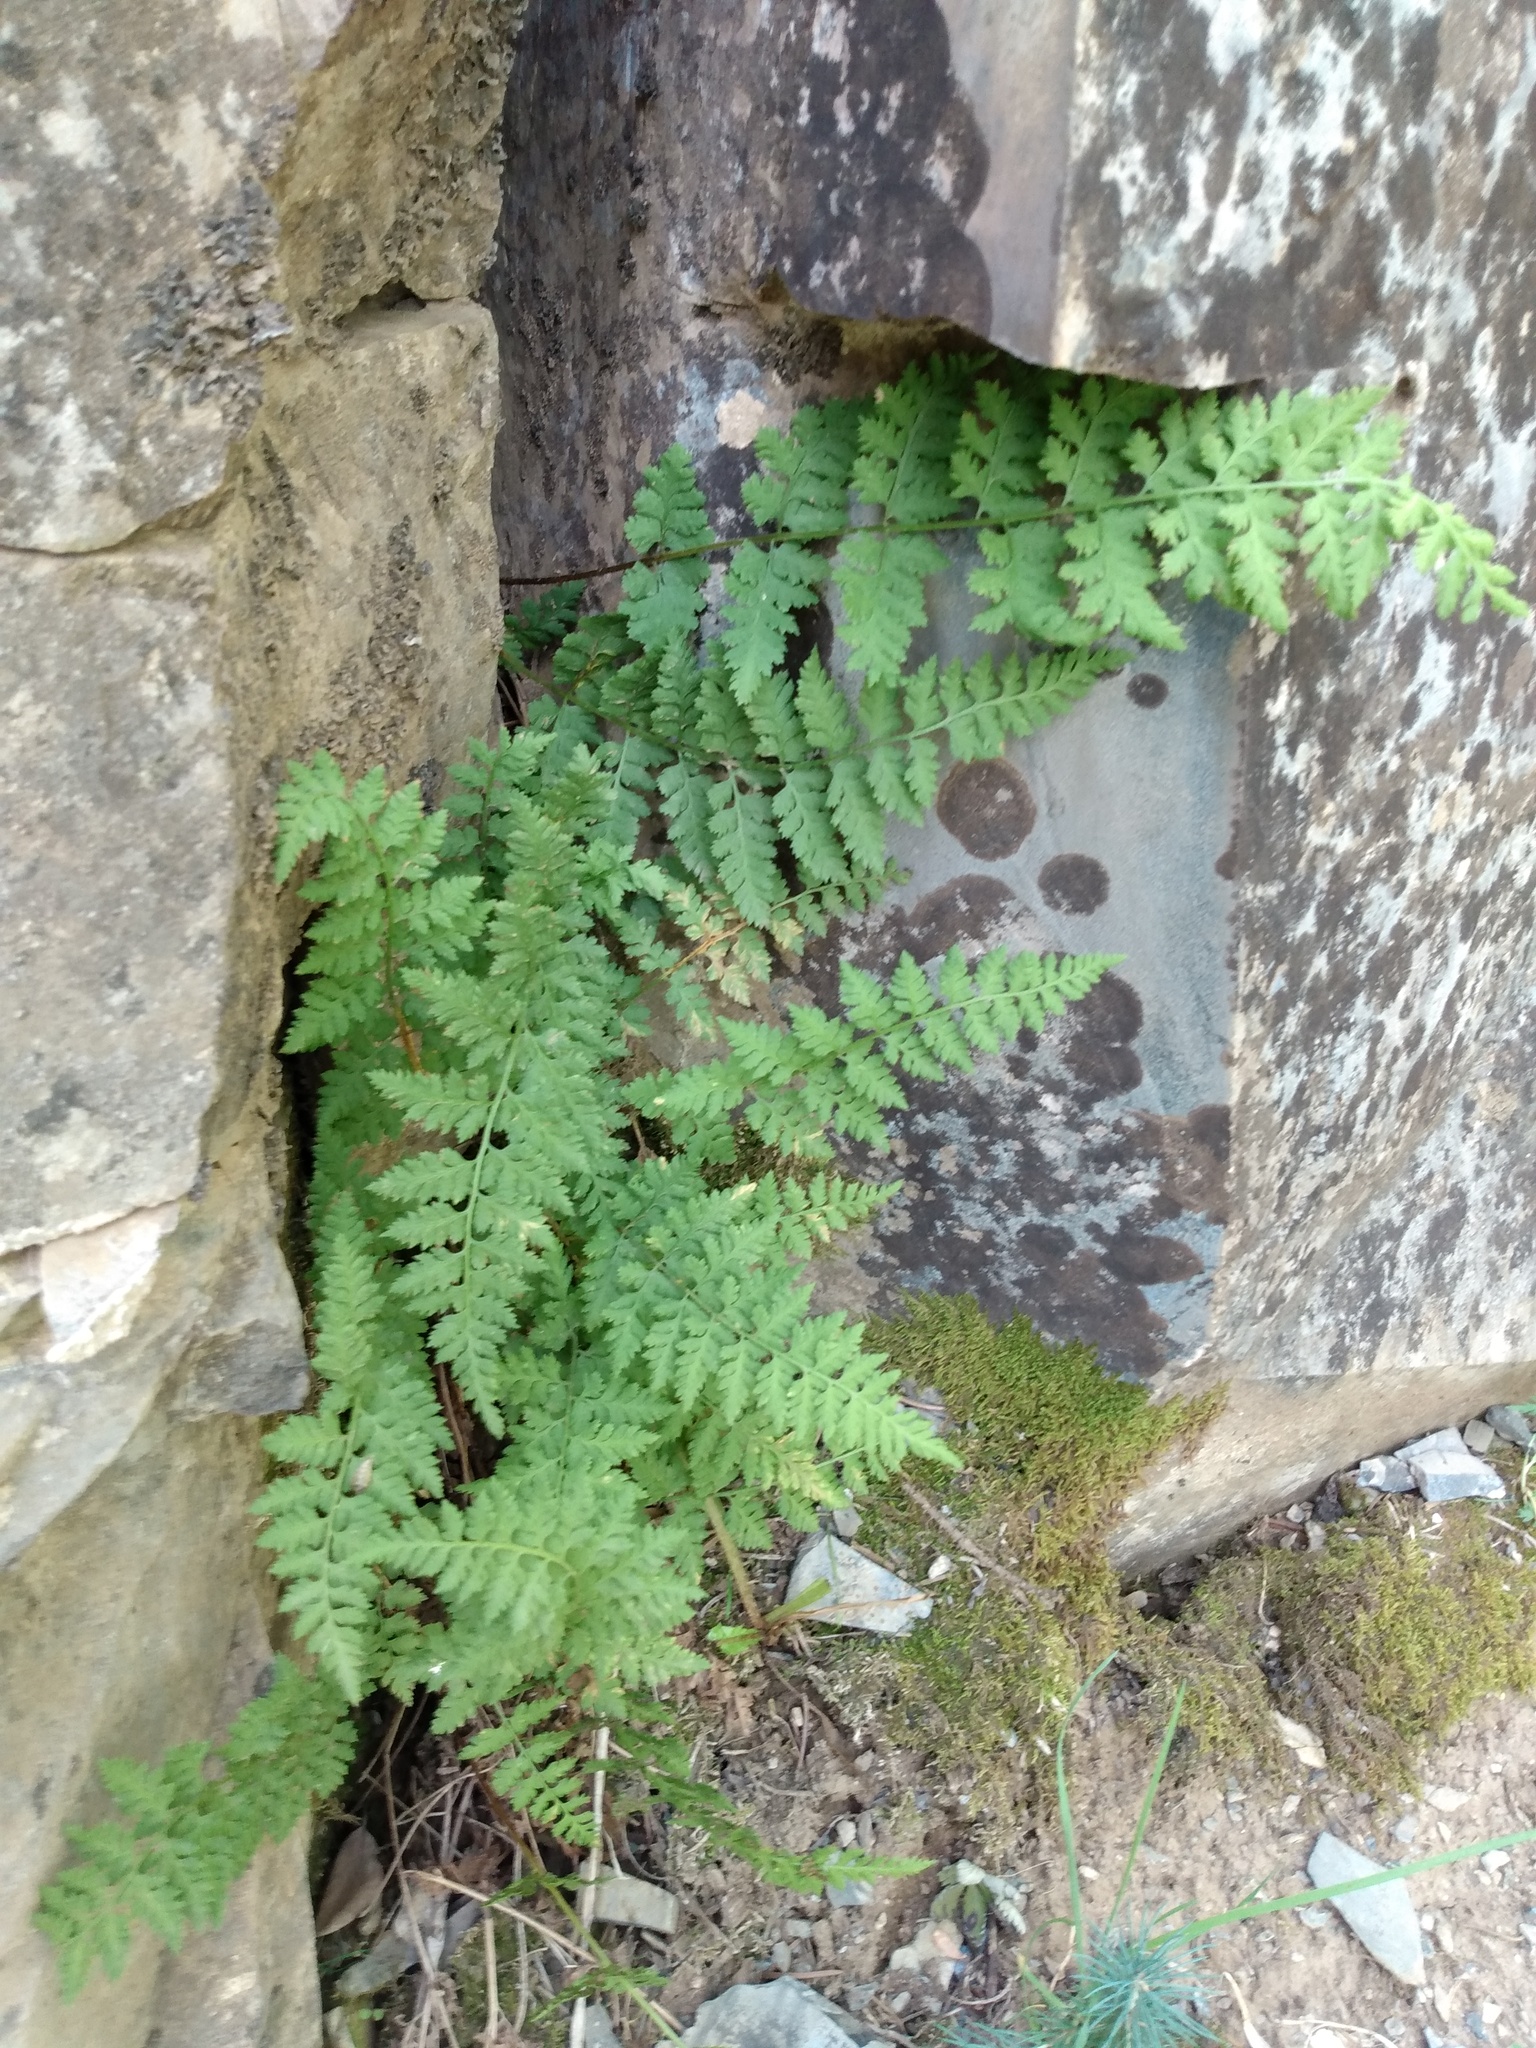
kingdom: Plantae
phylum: Tracheophyta
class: Polypodiopsida
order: Polypodiales
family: Cystopteridaceae
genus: Cystopteris
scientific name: Cystopteris fragilis
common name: Brittle bladder fern
